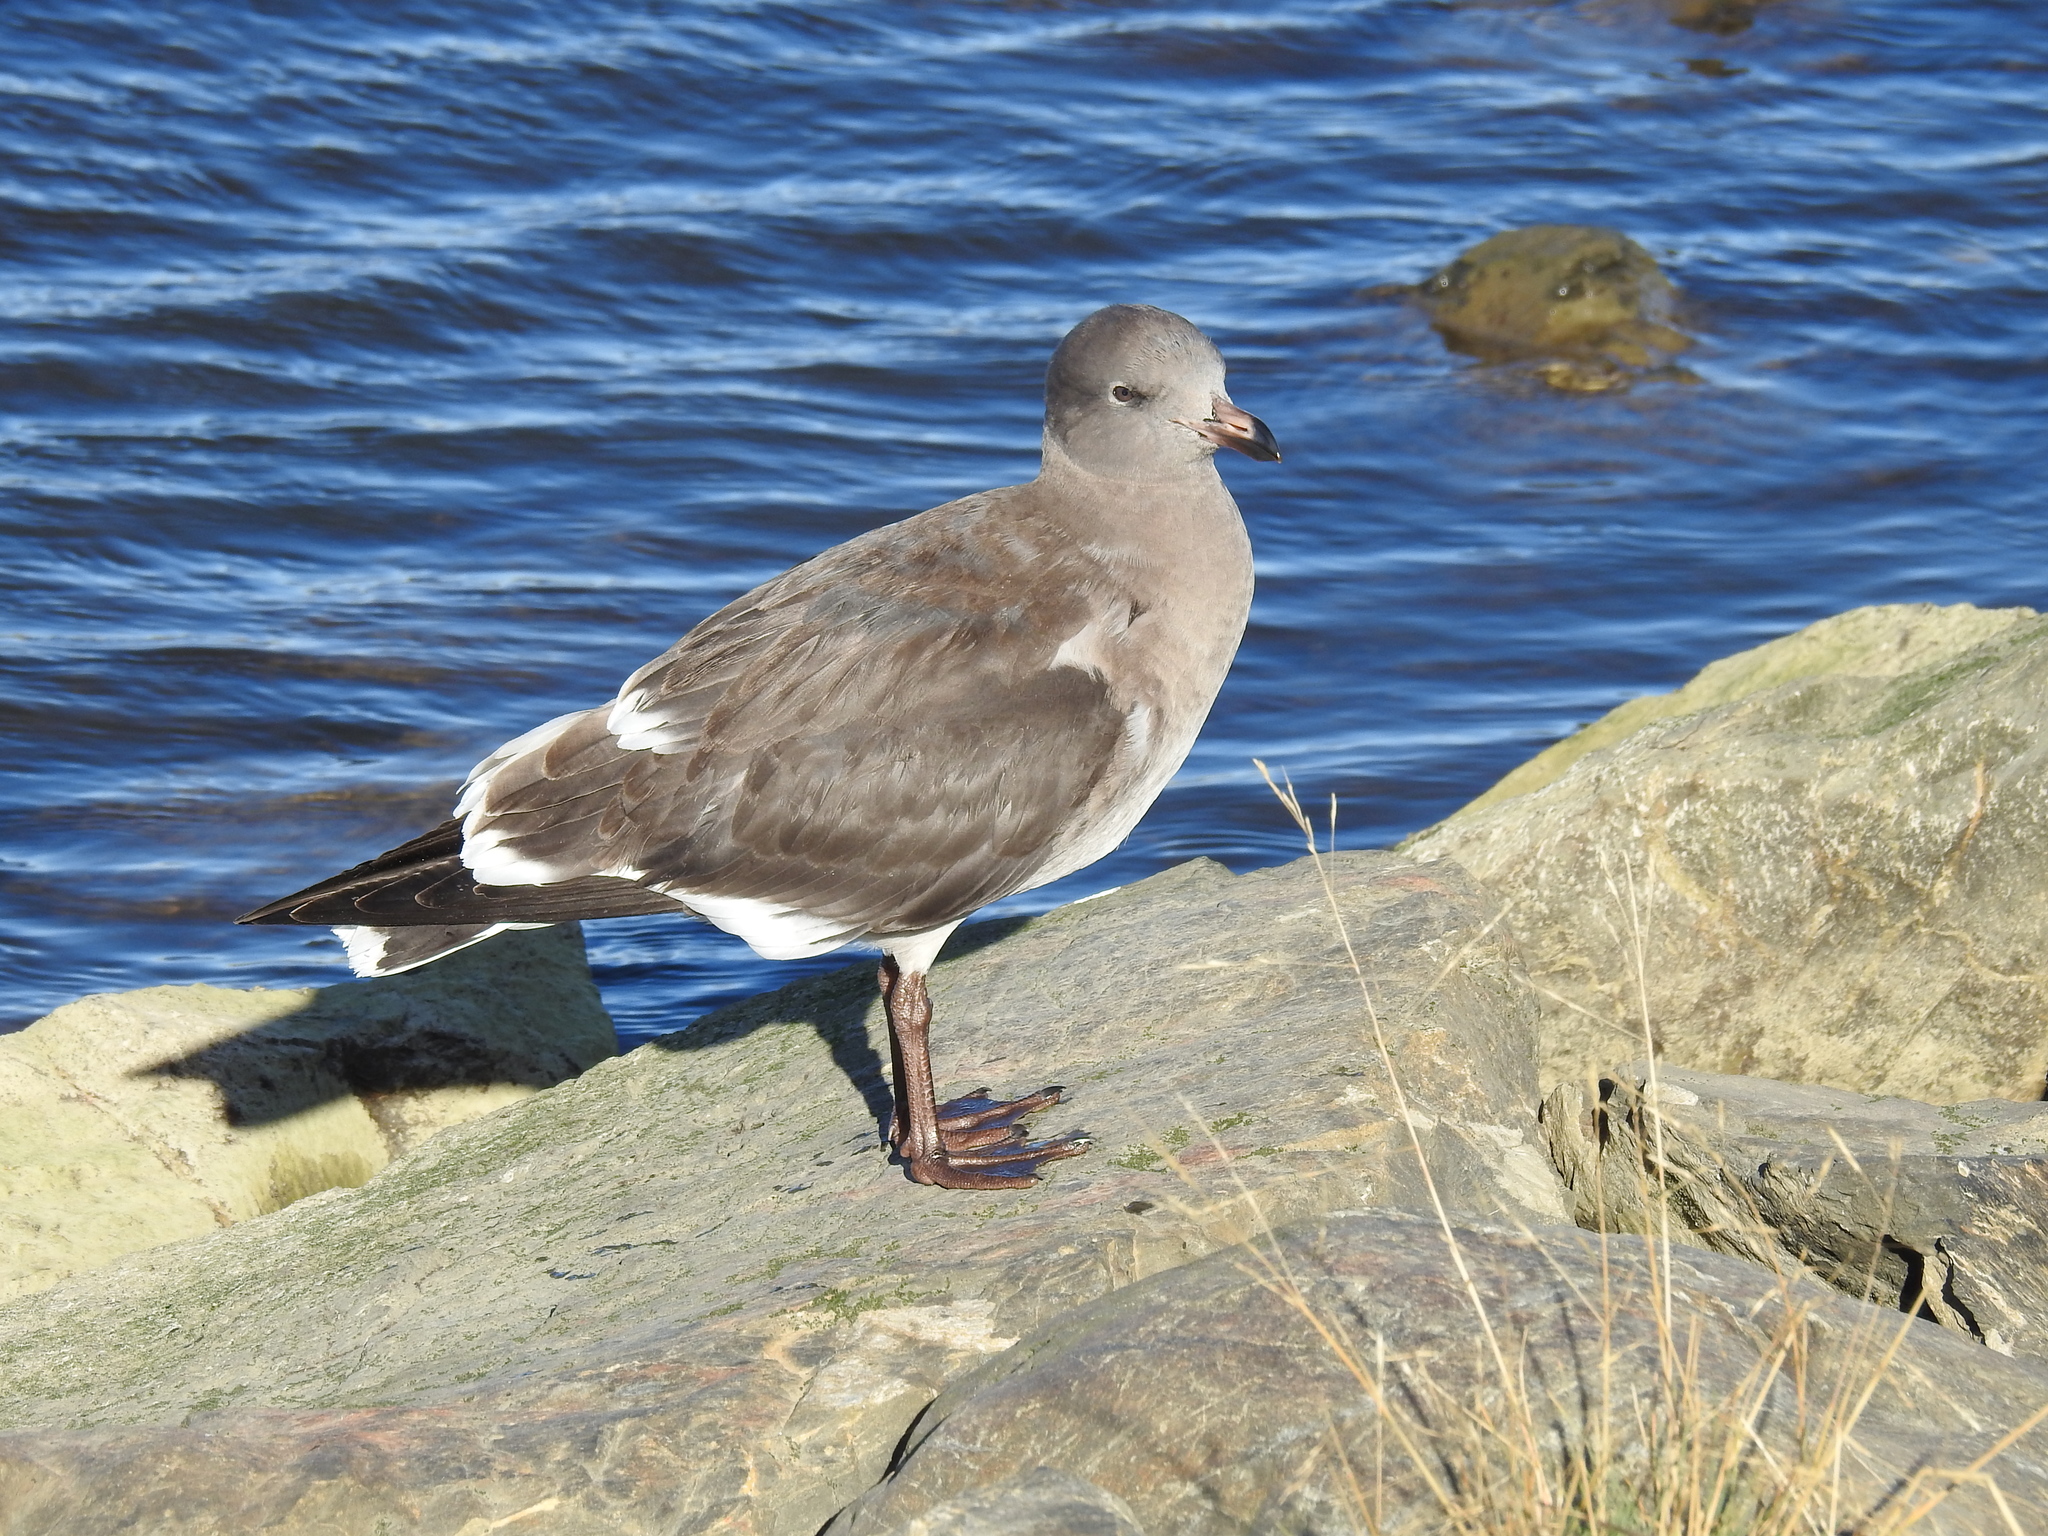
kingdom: Animalia
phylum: Chordata
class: Aves
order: Charadriiformes
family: Laridae
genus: Leucophaeus
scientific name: Leucophaeus scoresbii
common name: Dolphin gull
